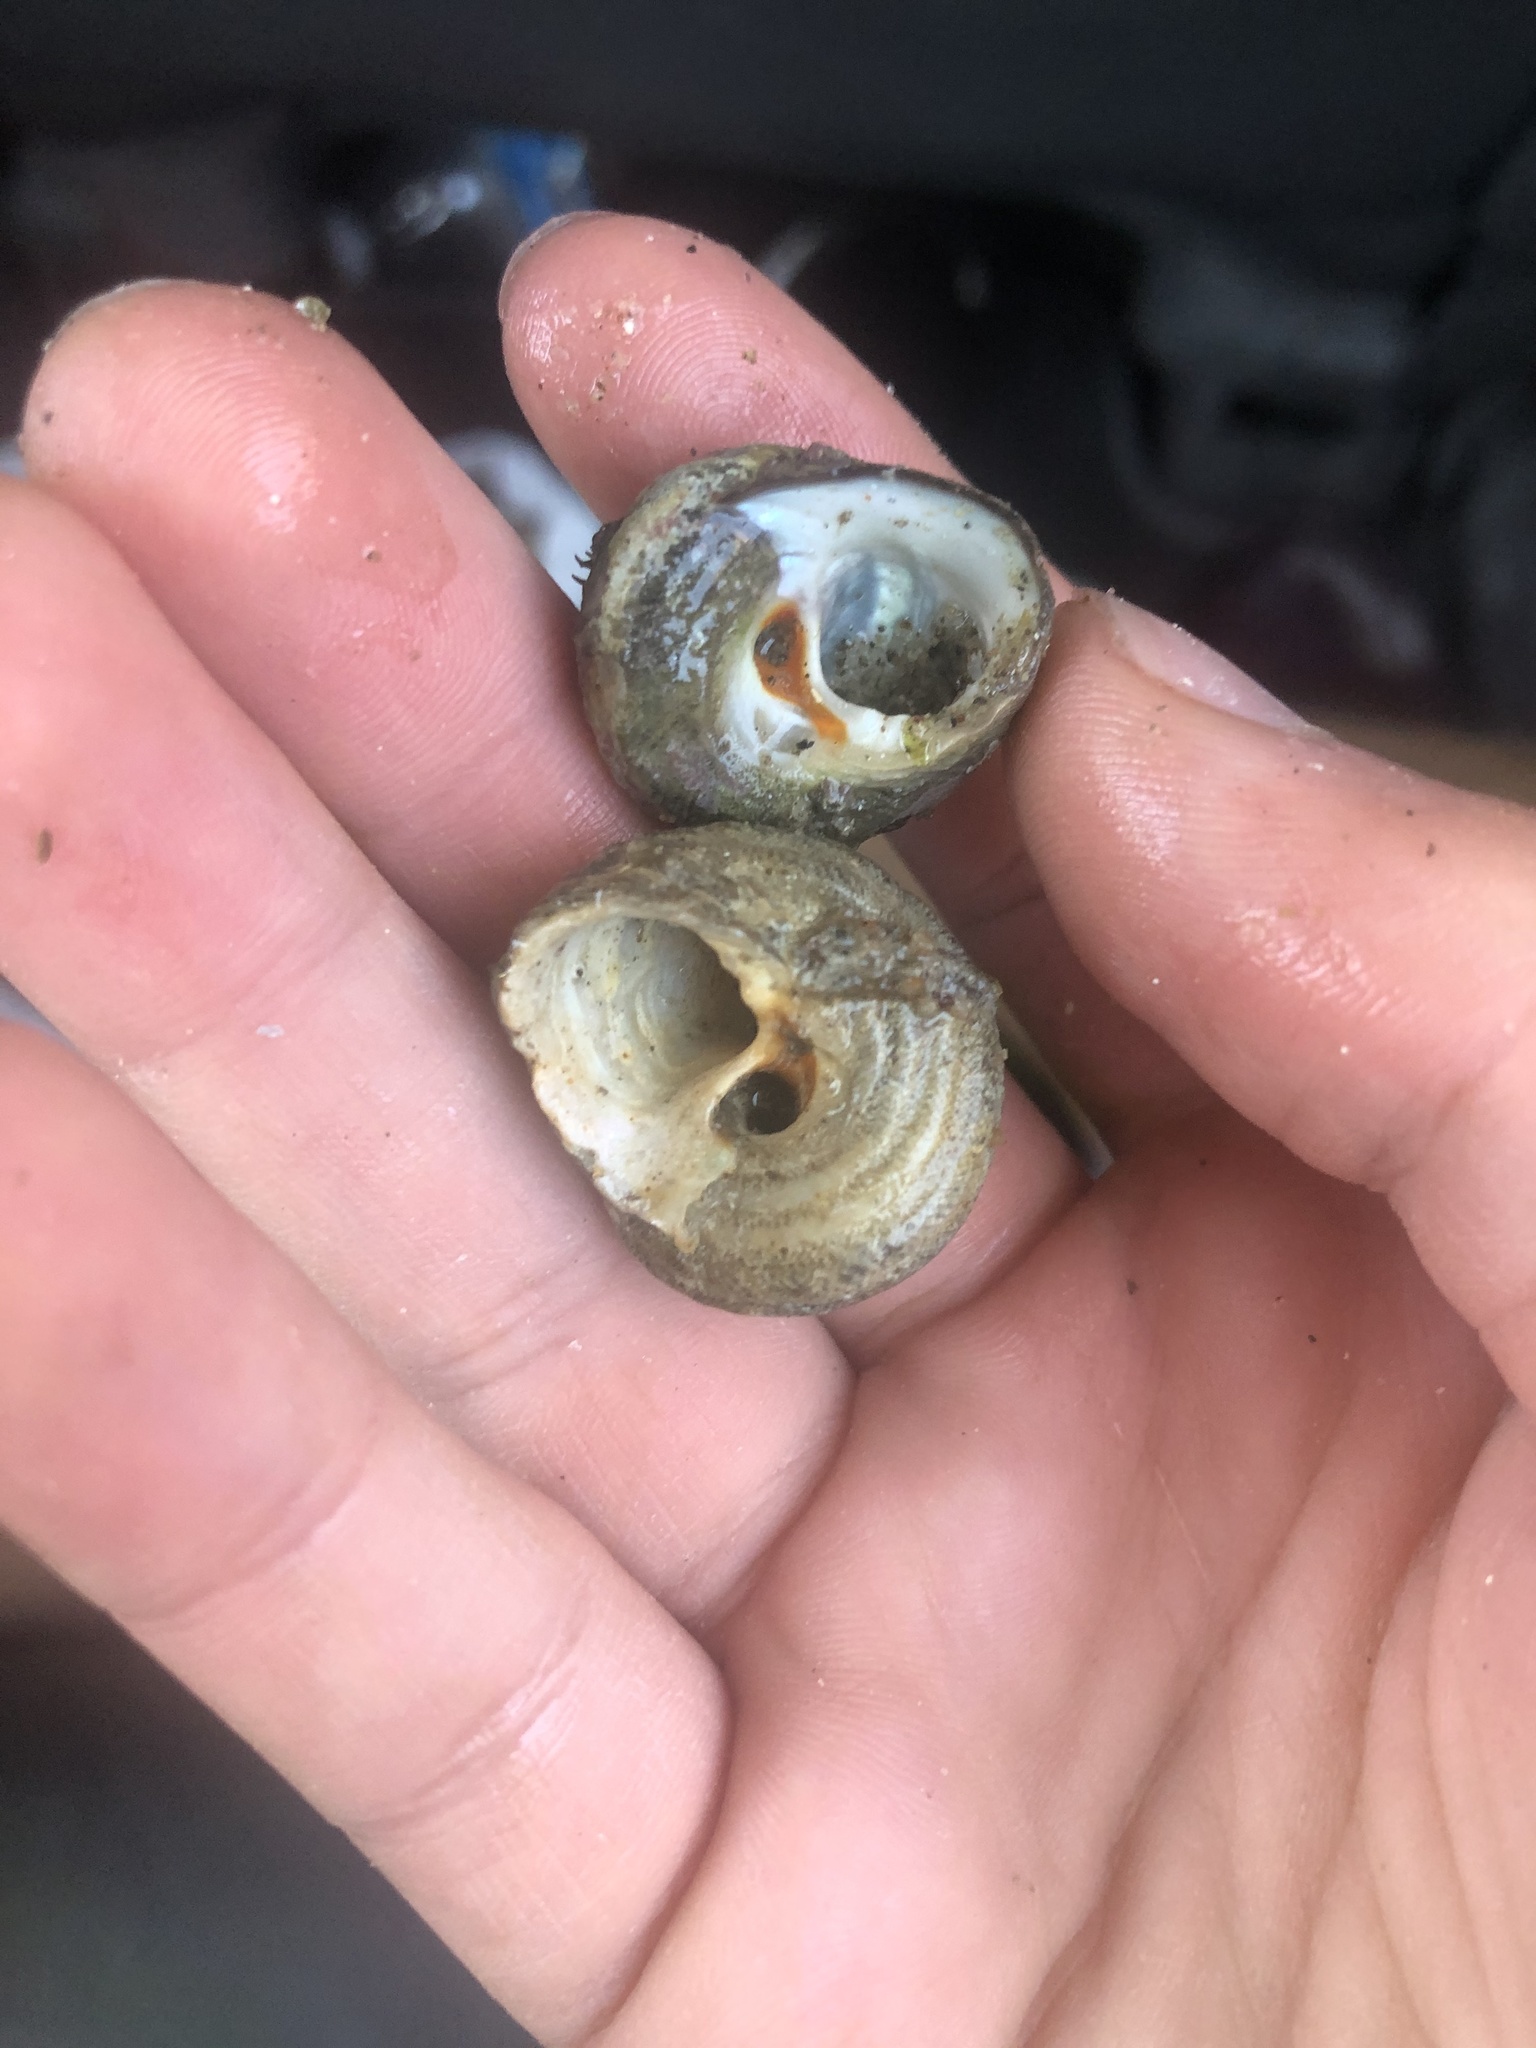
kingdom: Animalia
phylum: Mollusca
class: Gastropoda
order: Trochida
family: Tegulidae
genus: Tegula
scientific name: Tegula aureotincta
